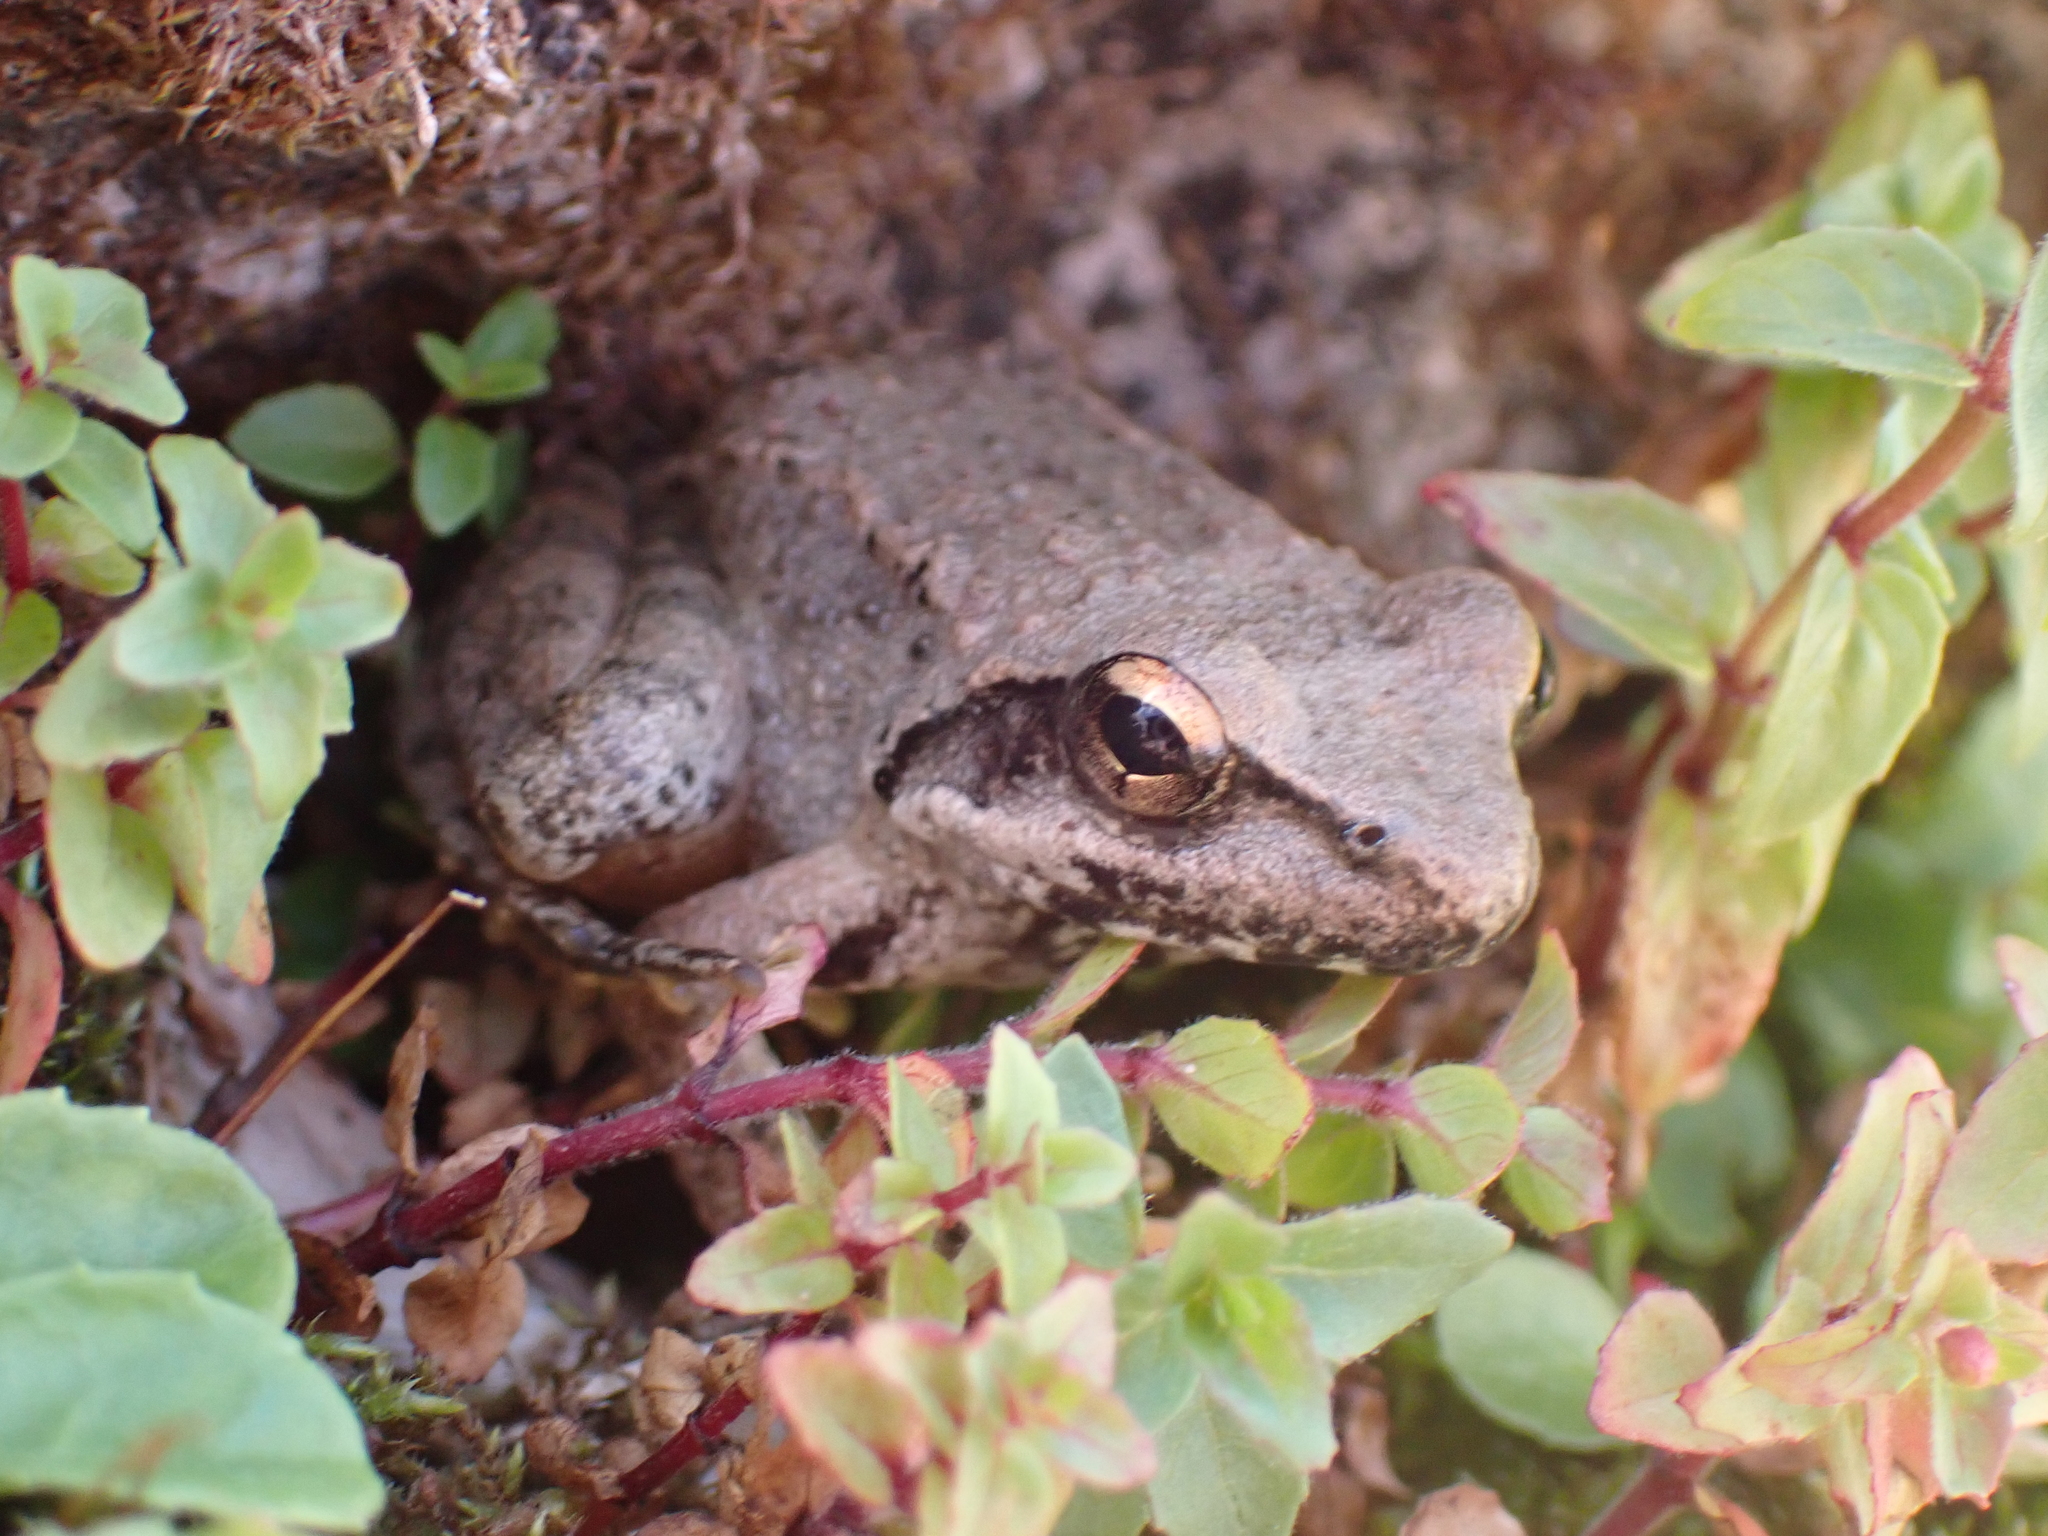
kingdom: Animalia
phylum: Chordata
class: Amphibia
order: Anura
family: Ranidae
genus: Rana
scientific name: Rana graeca
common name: Greek stream frog
